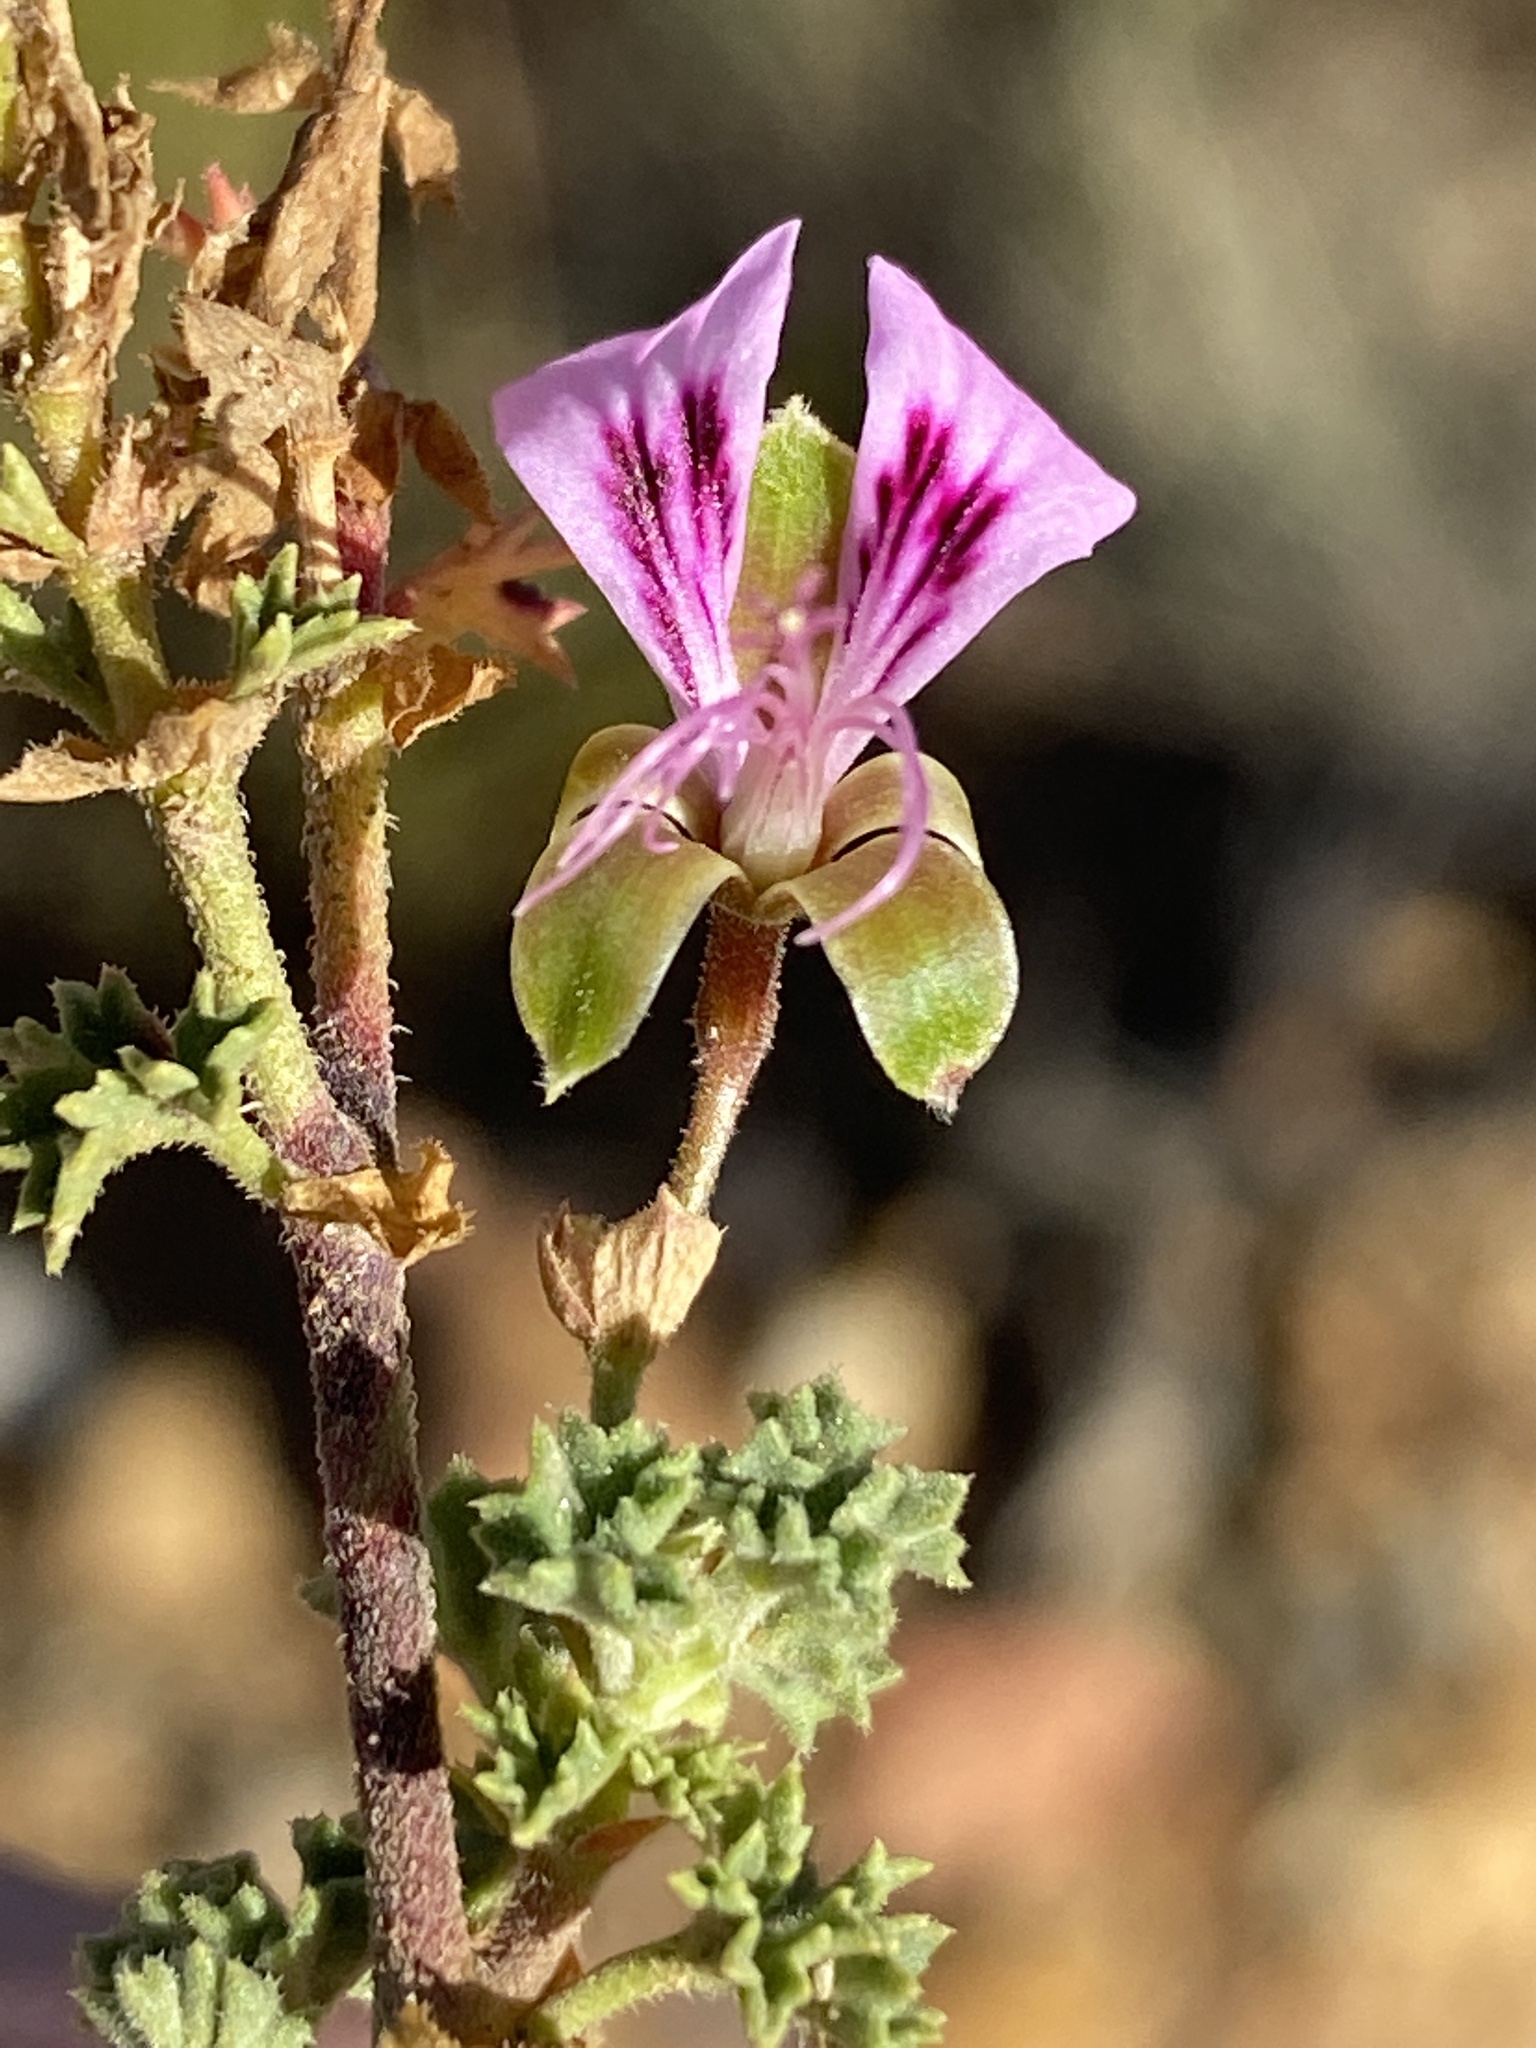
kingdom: Plantae
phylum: Tracheophyta
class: Magnoliopsida
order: Geraniales
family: Geraniaceae
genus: Pelargonium
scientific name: Pelargonium englerianum
